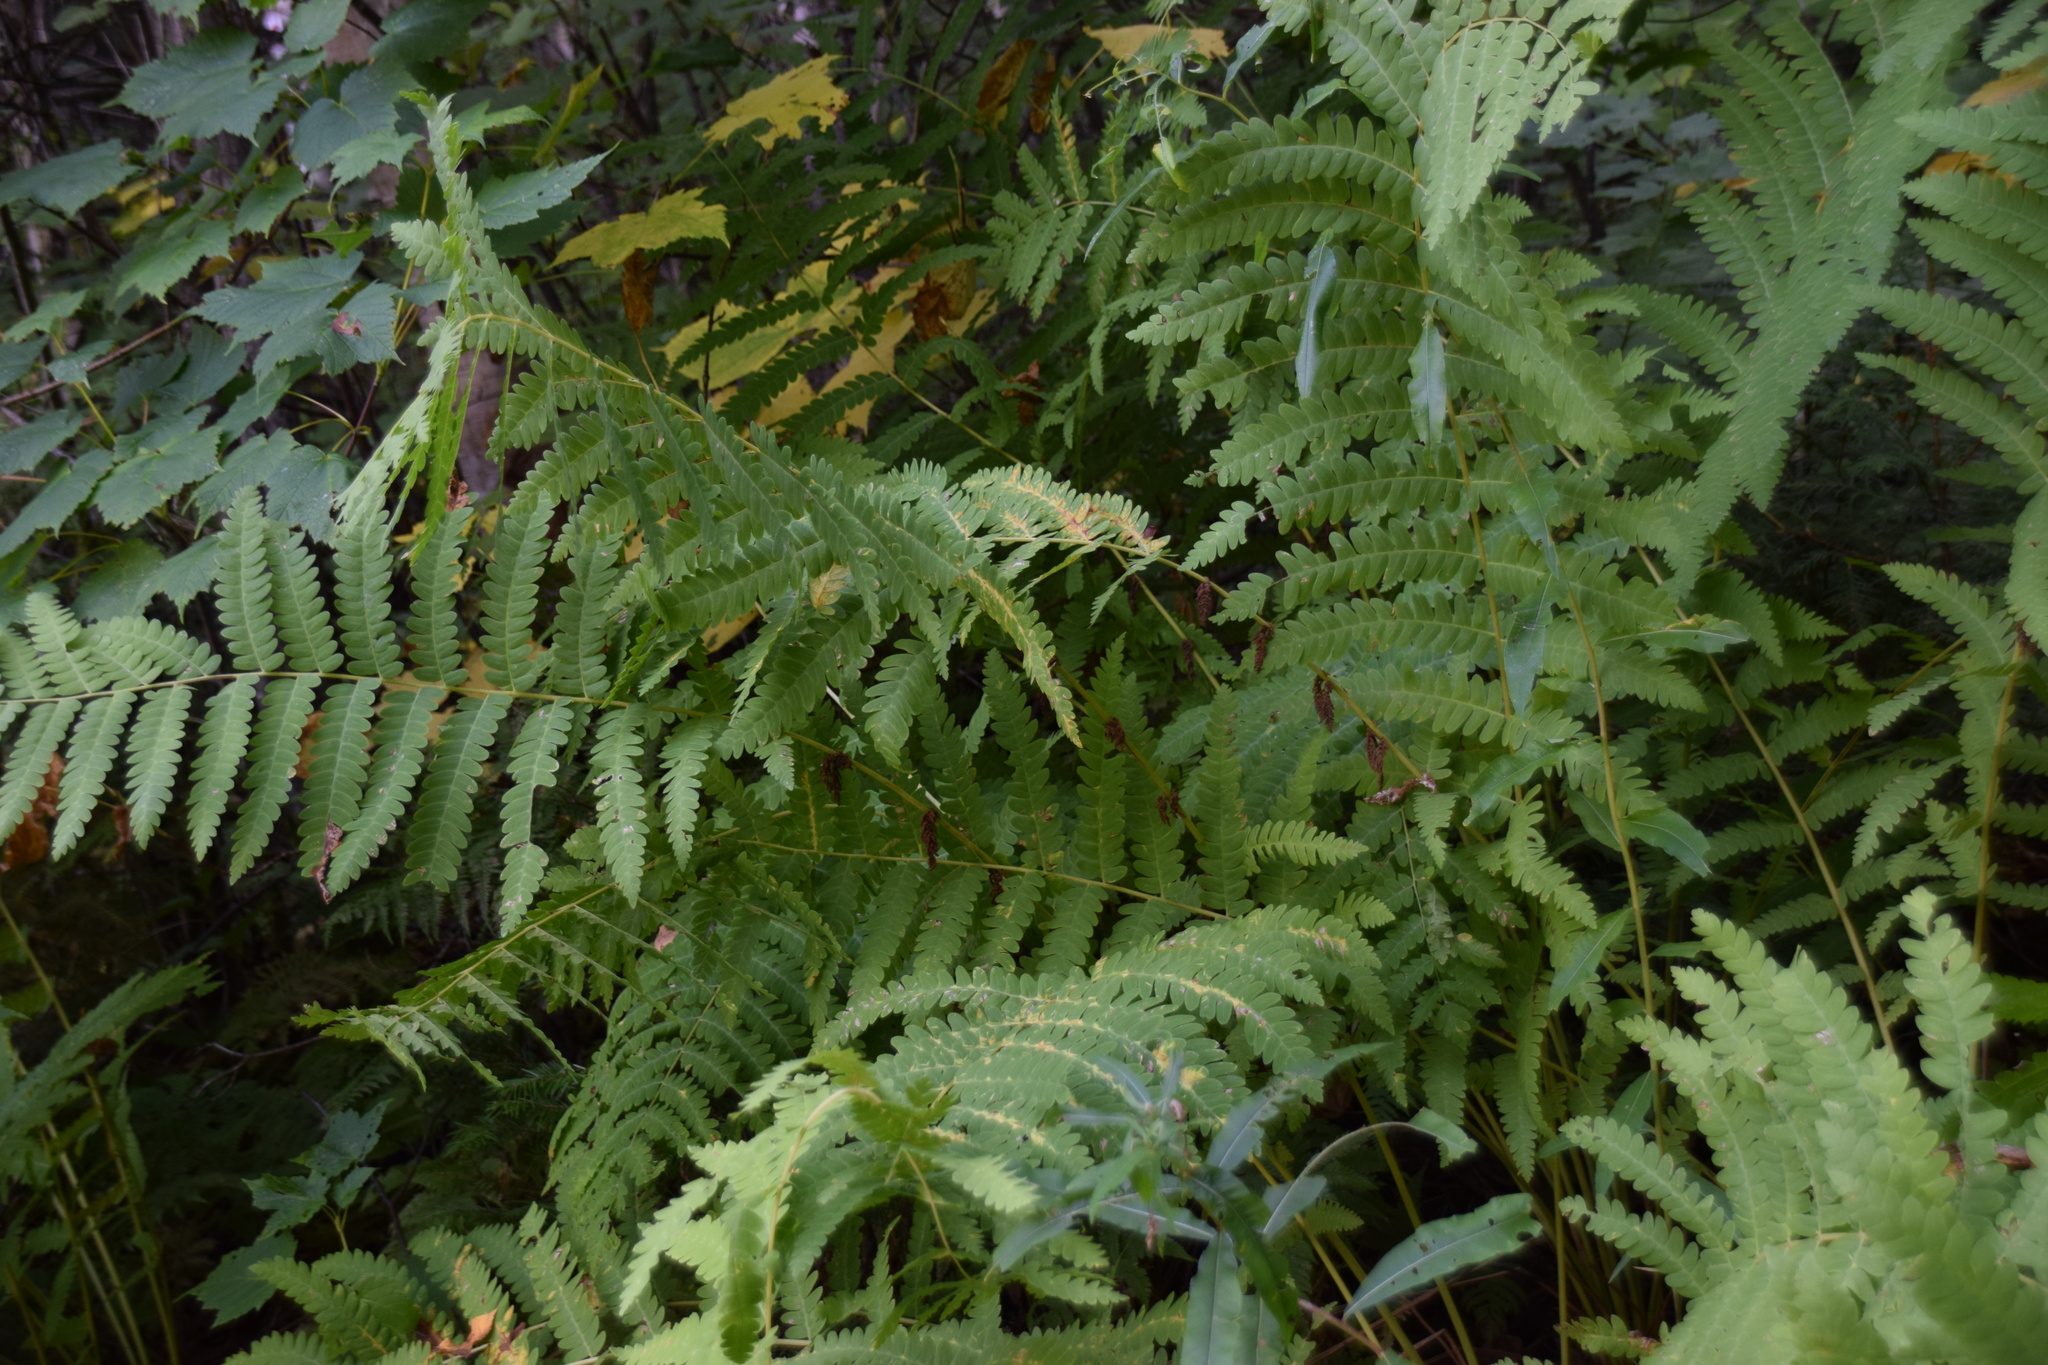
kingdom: Plantae
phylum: Tracheophyta
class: Polypodiopsida
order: Osmundales
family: Osmundaceae
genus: Claytosmunda
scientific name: Claytosmunda claytoniana
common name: Clayton's fern
